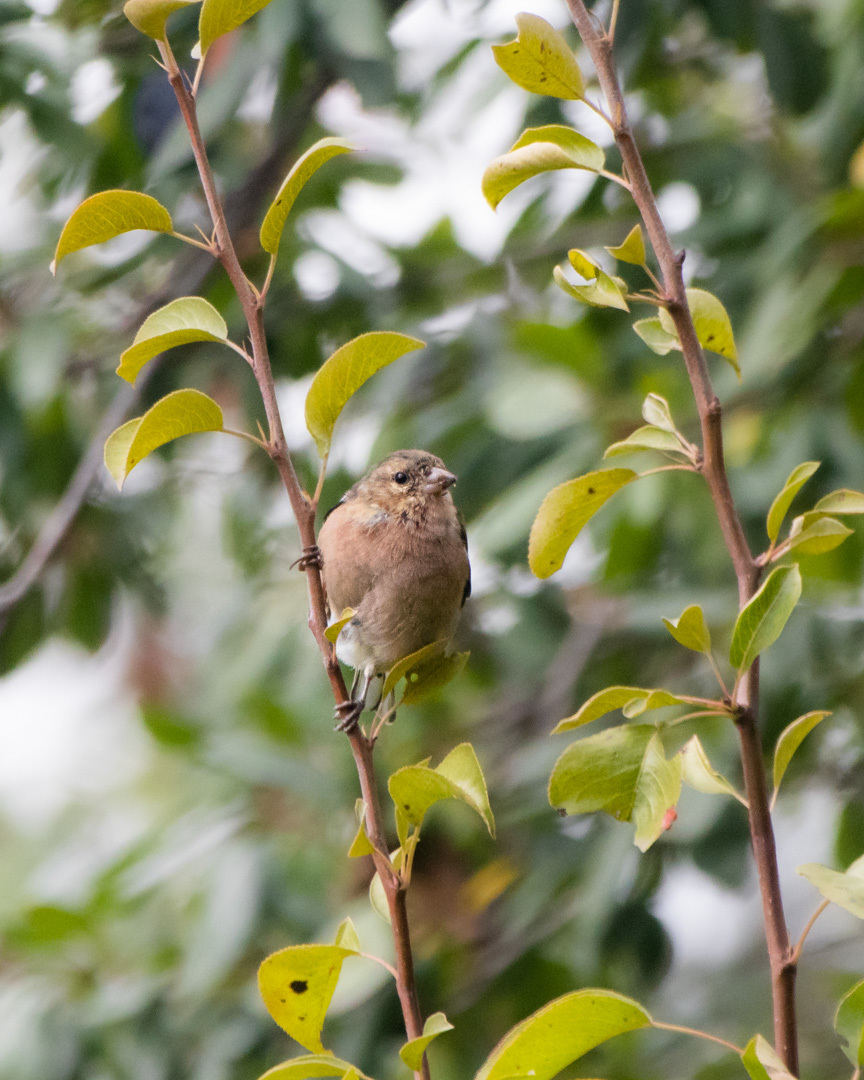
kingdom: Animalia
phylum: Chordata
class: Aves
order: Passeriformes
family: Fringillidae
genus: Fringilla
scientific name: Fringilla coelebs
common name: Common chaffinch
